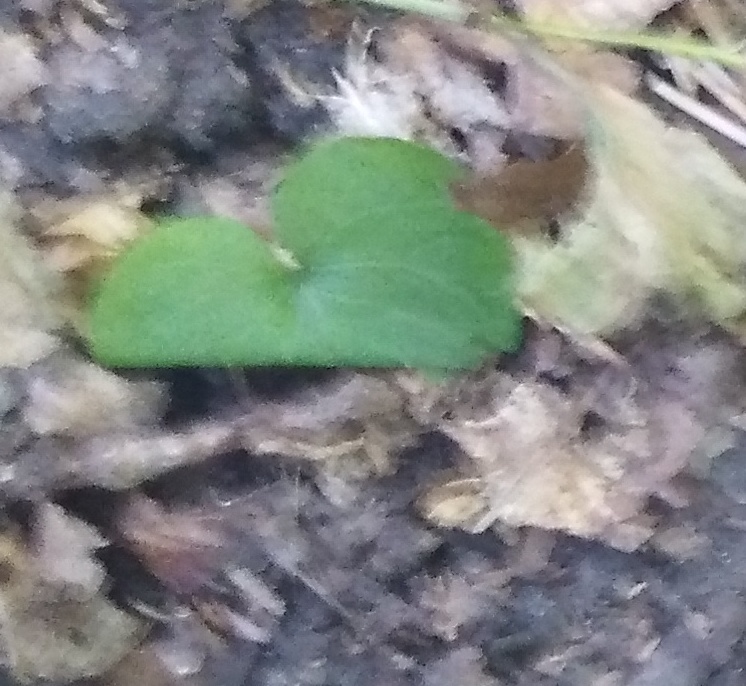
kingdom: Plantae
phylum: Tracheophyta
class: Magnoliopsida
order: Piperales
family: Aristolochiaceae
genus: Asarum
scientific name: Asarum europaeum
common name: Asarabacca
